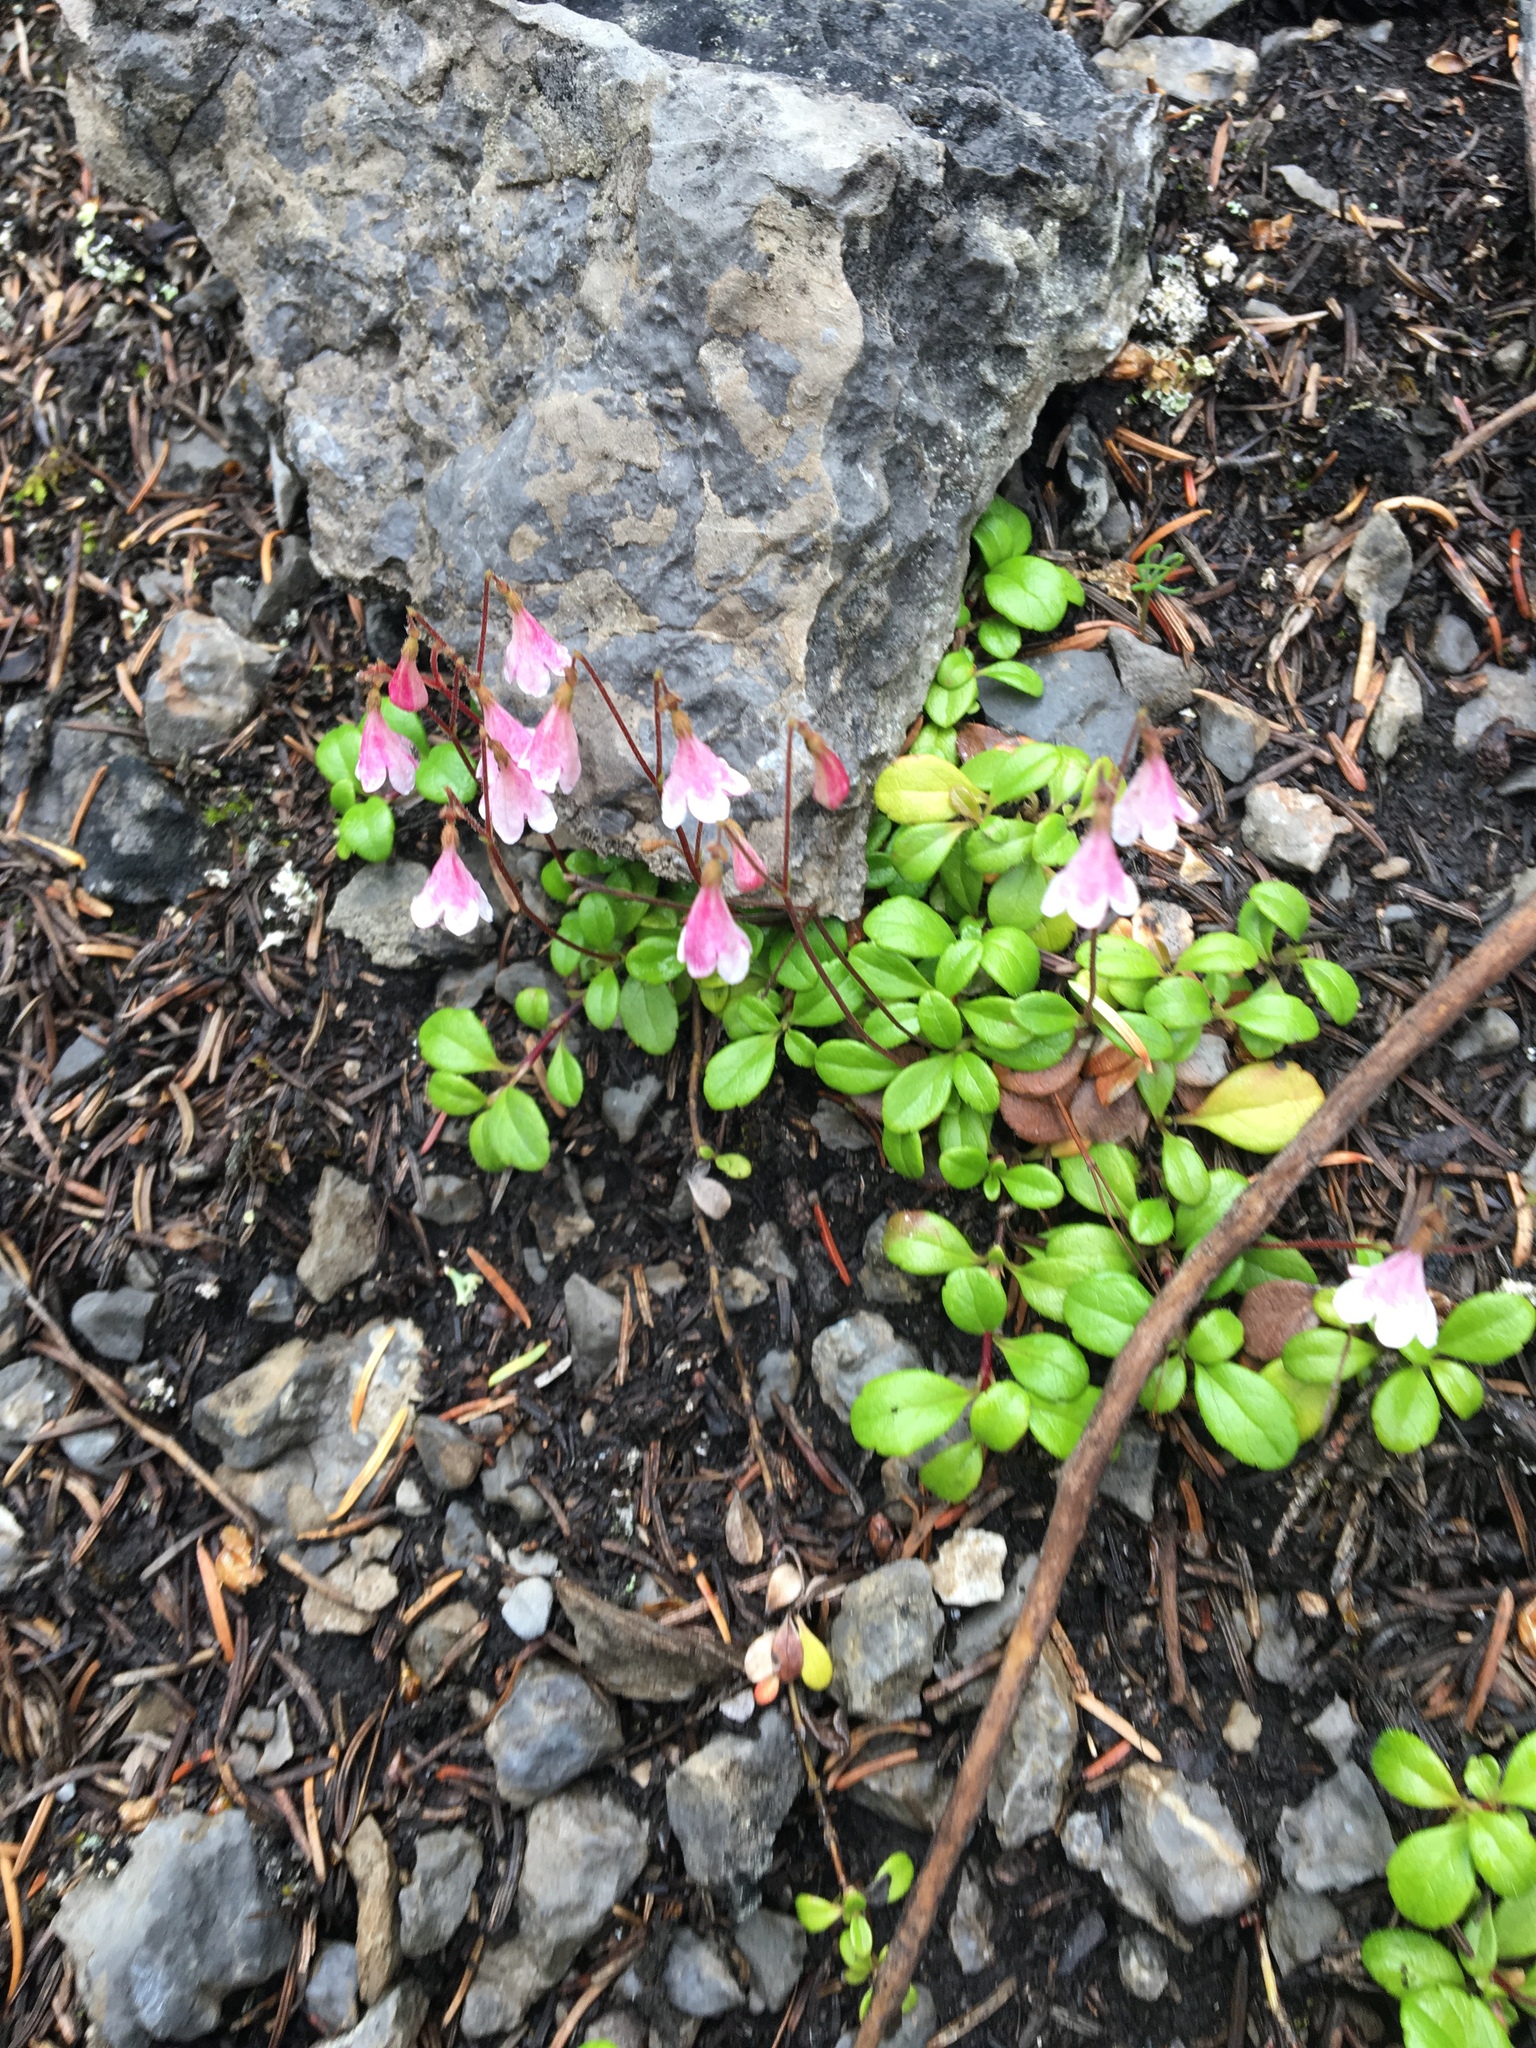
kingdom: Plantae
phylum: Tracheophyta
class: Magnoliopsida
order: Dipsacales
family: Caprifoliaceae
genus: Linnaea
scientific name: Linnaea borealis
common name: Twinflower
